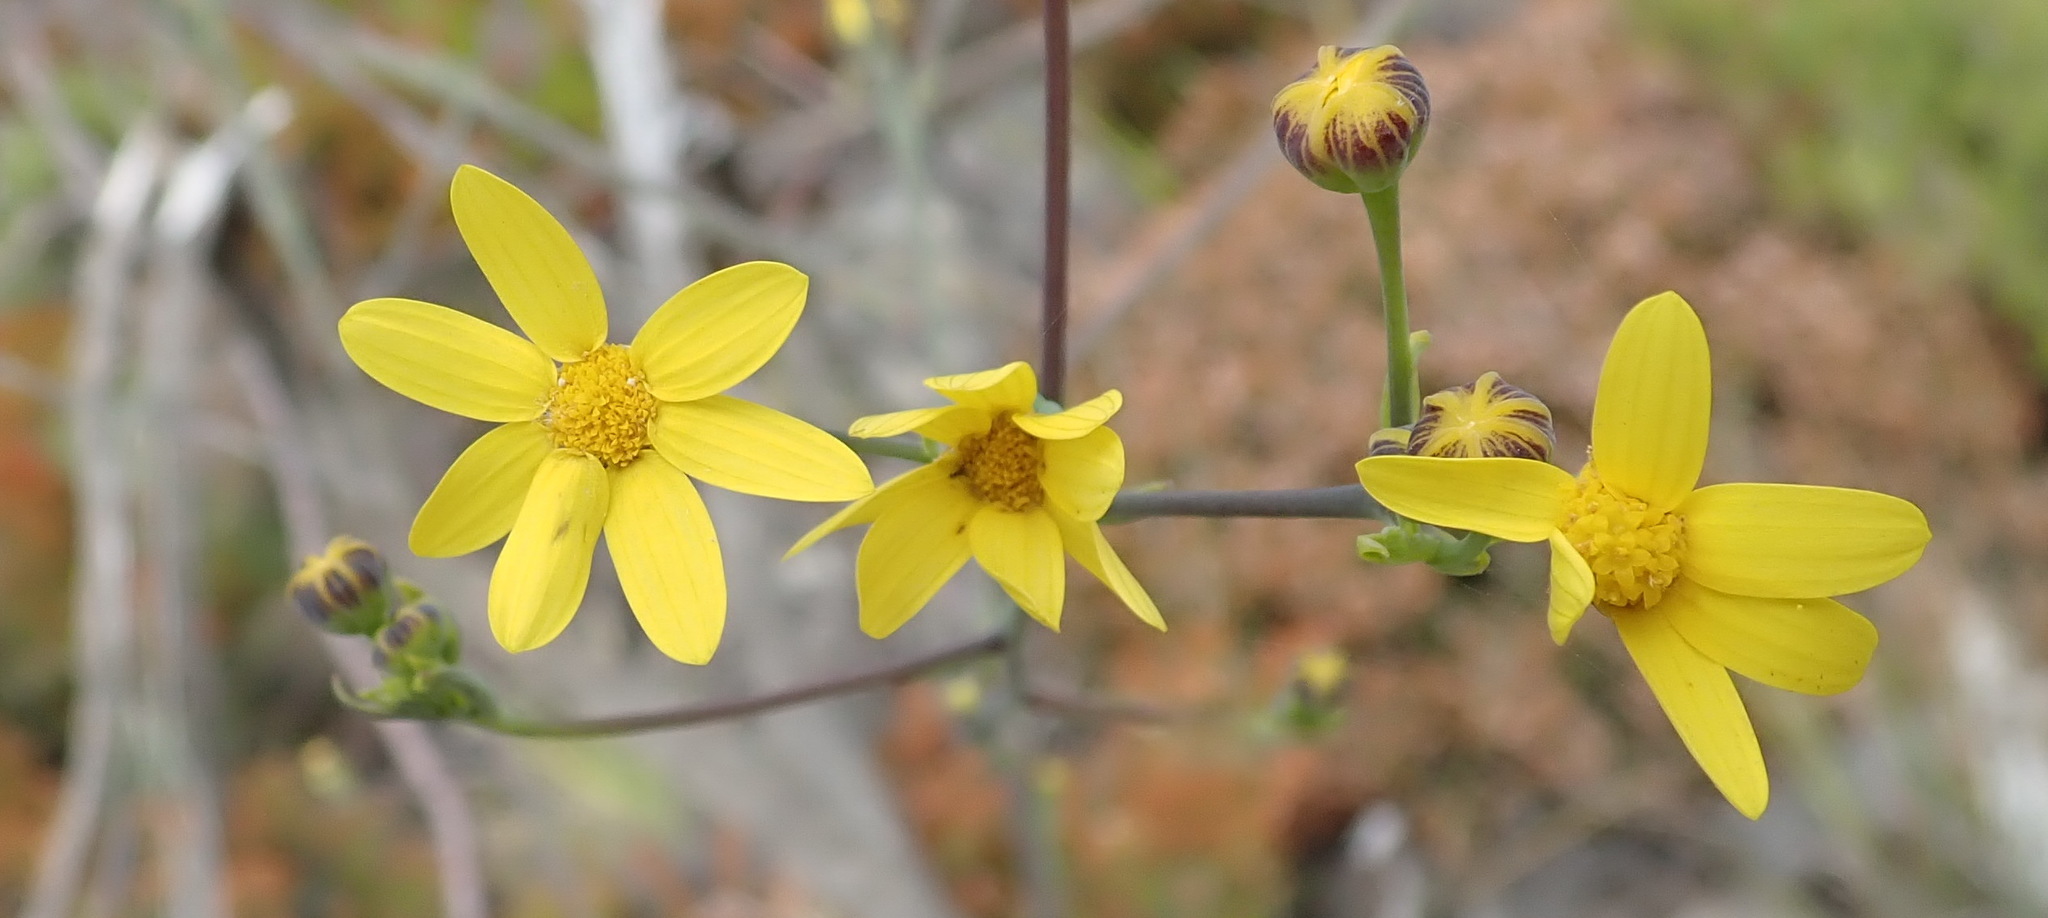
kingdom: Plantae
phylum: Tracheophyta
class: Magnoliopsida
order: Asterales
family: Asteraceae
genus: Othonna
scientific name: Othonna quinquedentata
